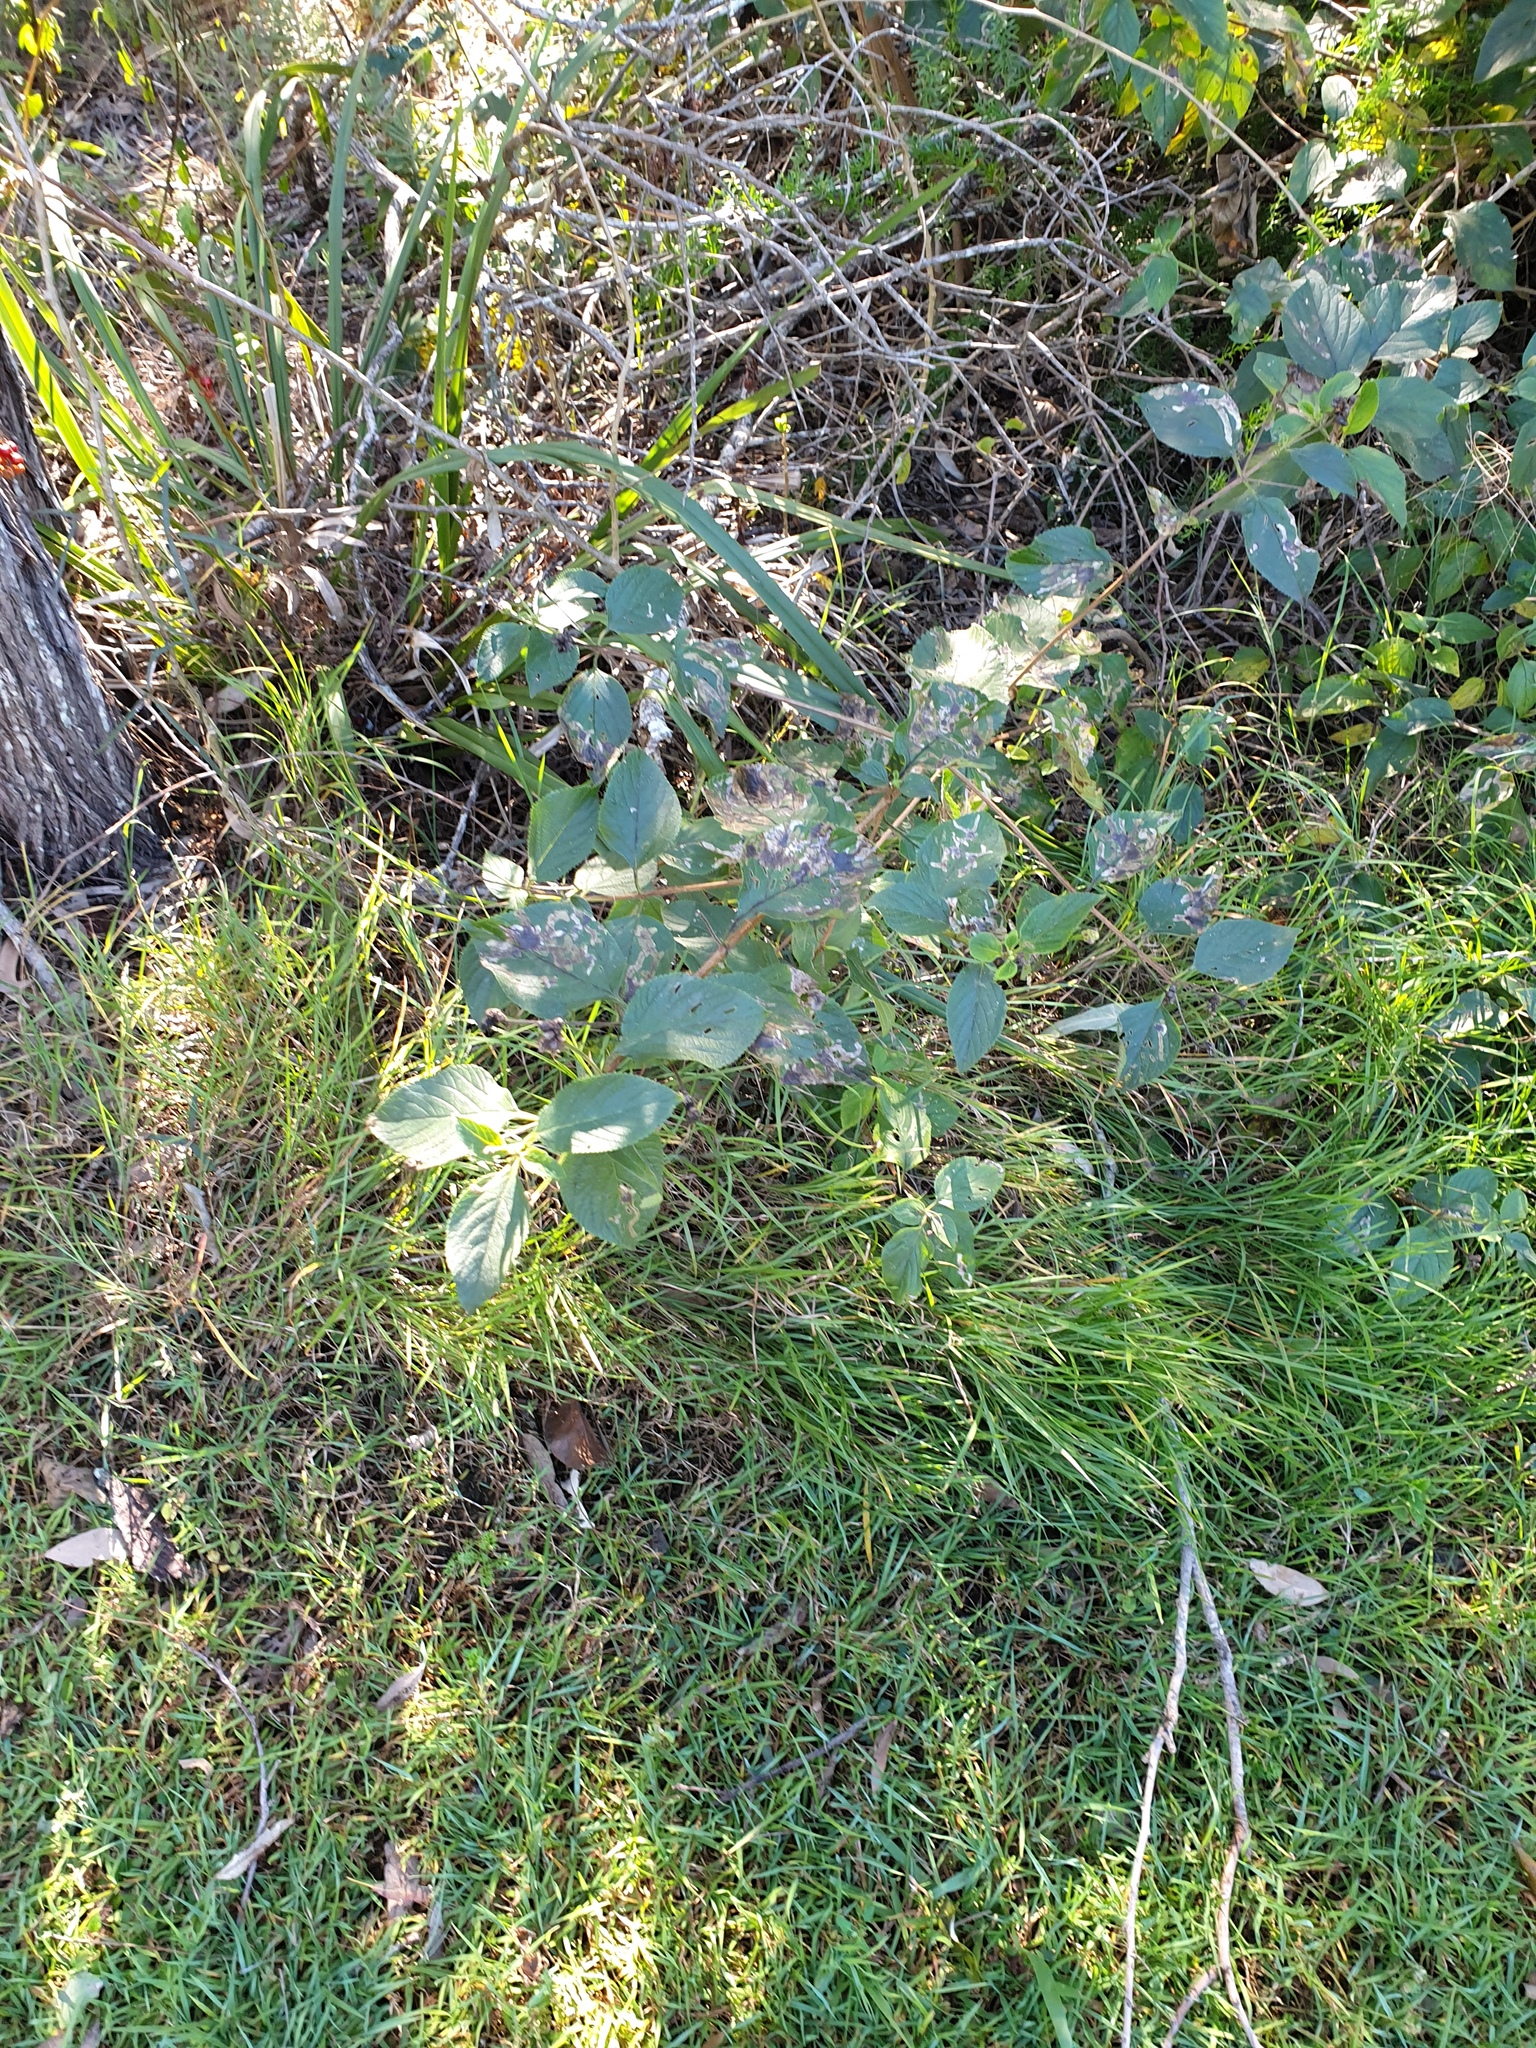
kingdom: Plantae
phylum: Tracheophyta
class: Magnoliopsida
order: Lamiales
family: Verbenaceae
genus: Lantana
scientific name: Lantana camara
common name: Lantana
